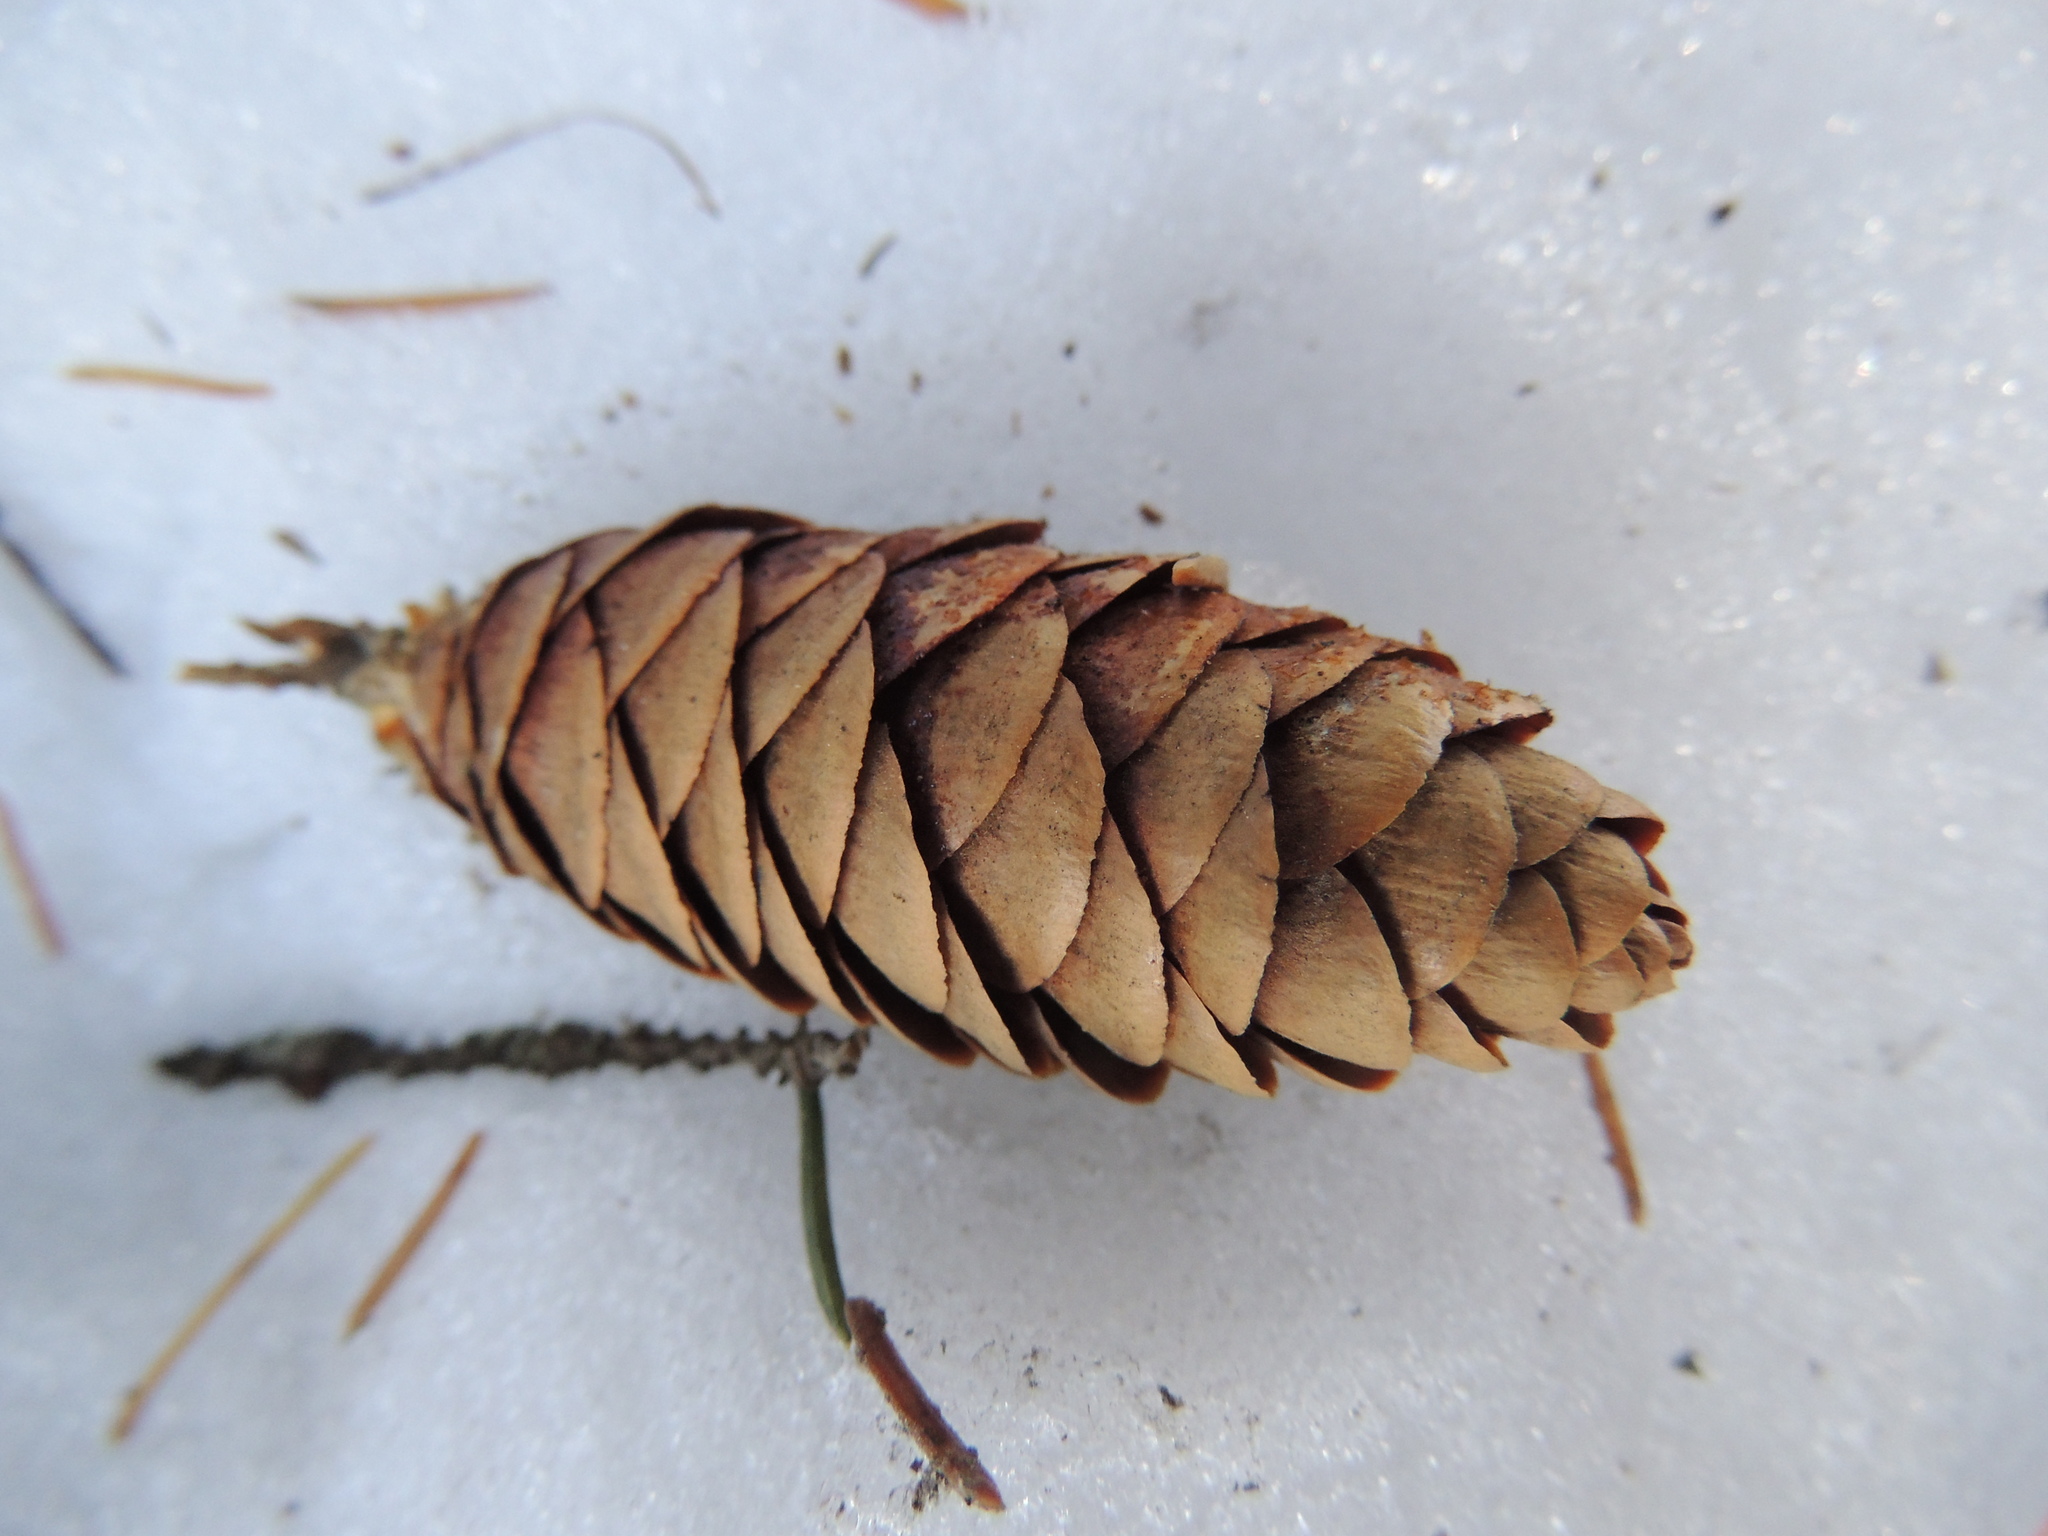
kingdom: Plantae
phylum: Tracheophyta
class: Pinopsida
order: Pinales
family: Pinaceae
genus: Picea
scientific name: Picea obovata
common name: Siberian spruce
